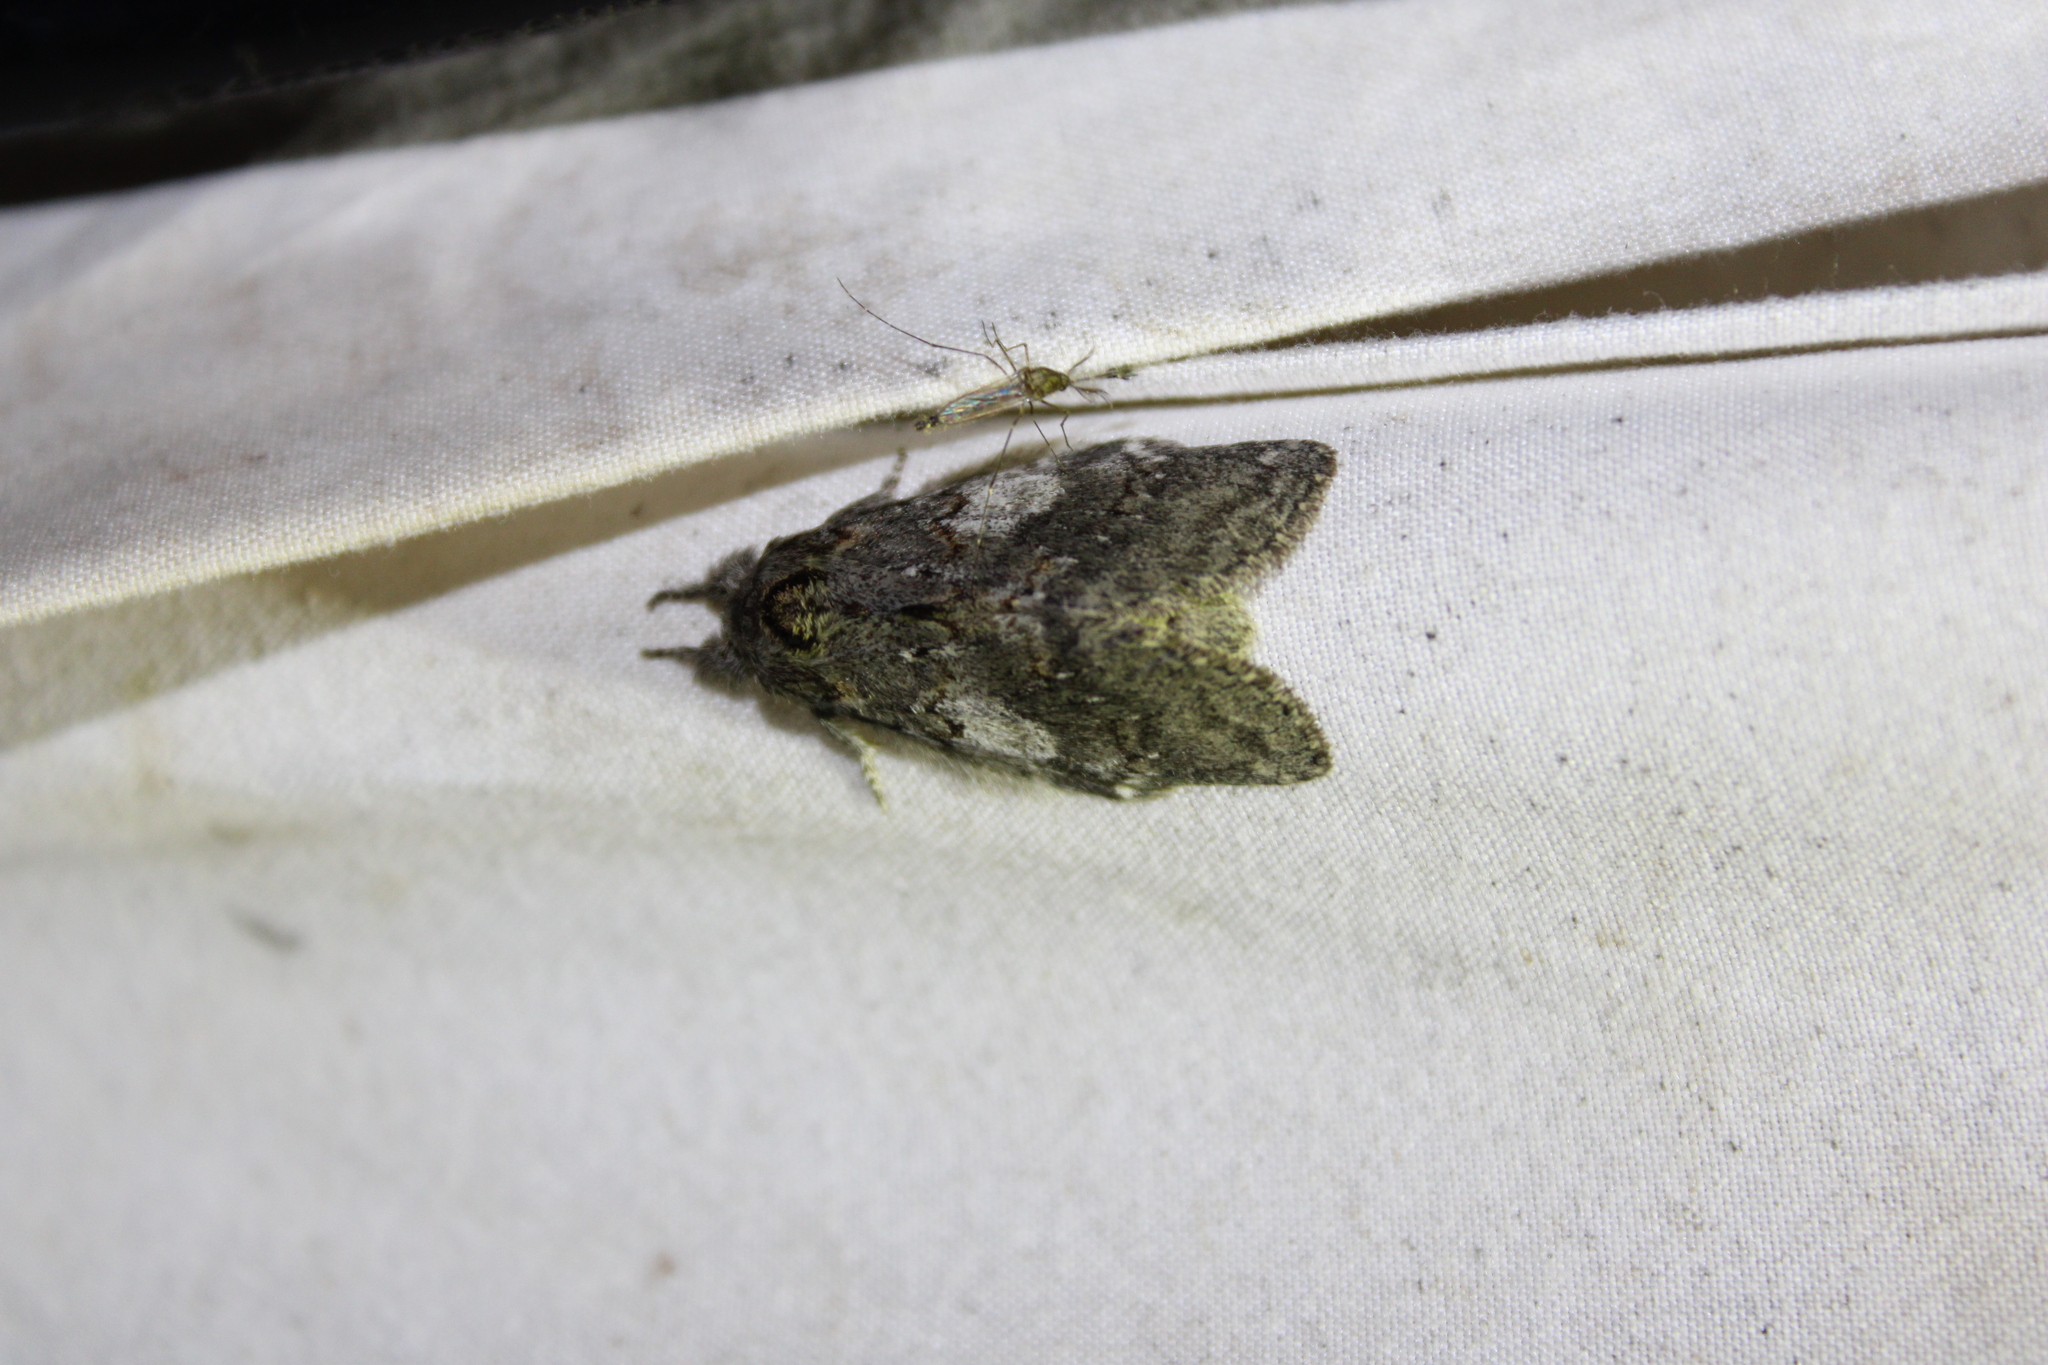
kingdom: Animalia
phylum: Arthropoda
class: Insecta
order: Lepidoptera
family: Notodontidae
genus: Peridea
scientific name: Peridea angulosa
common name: Angulose prominent
